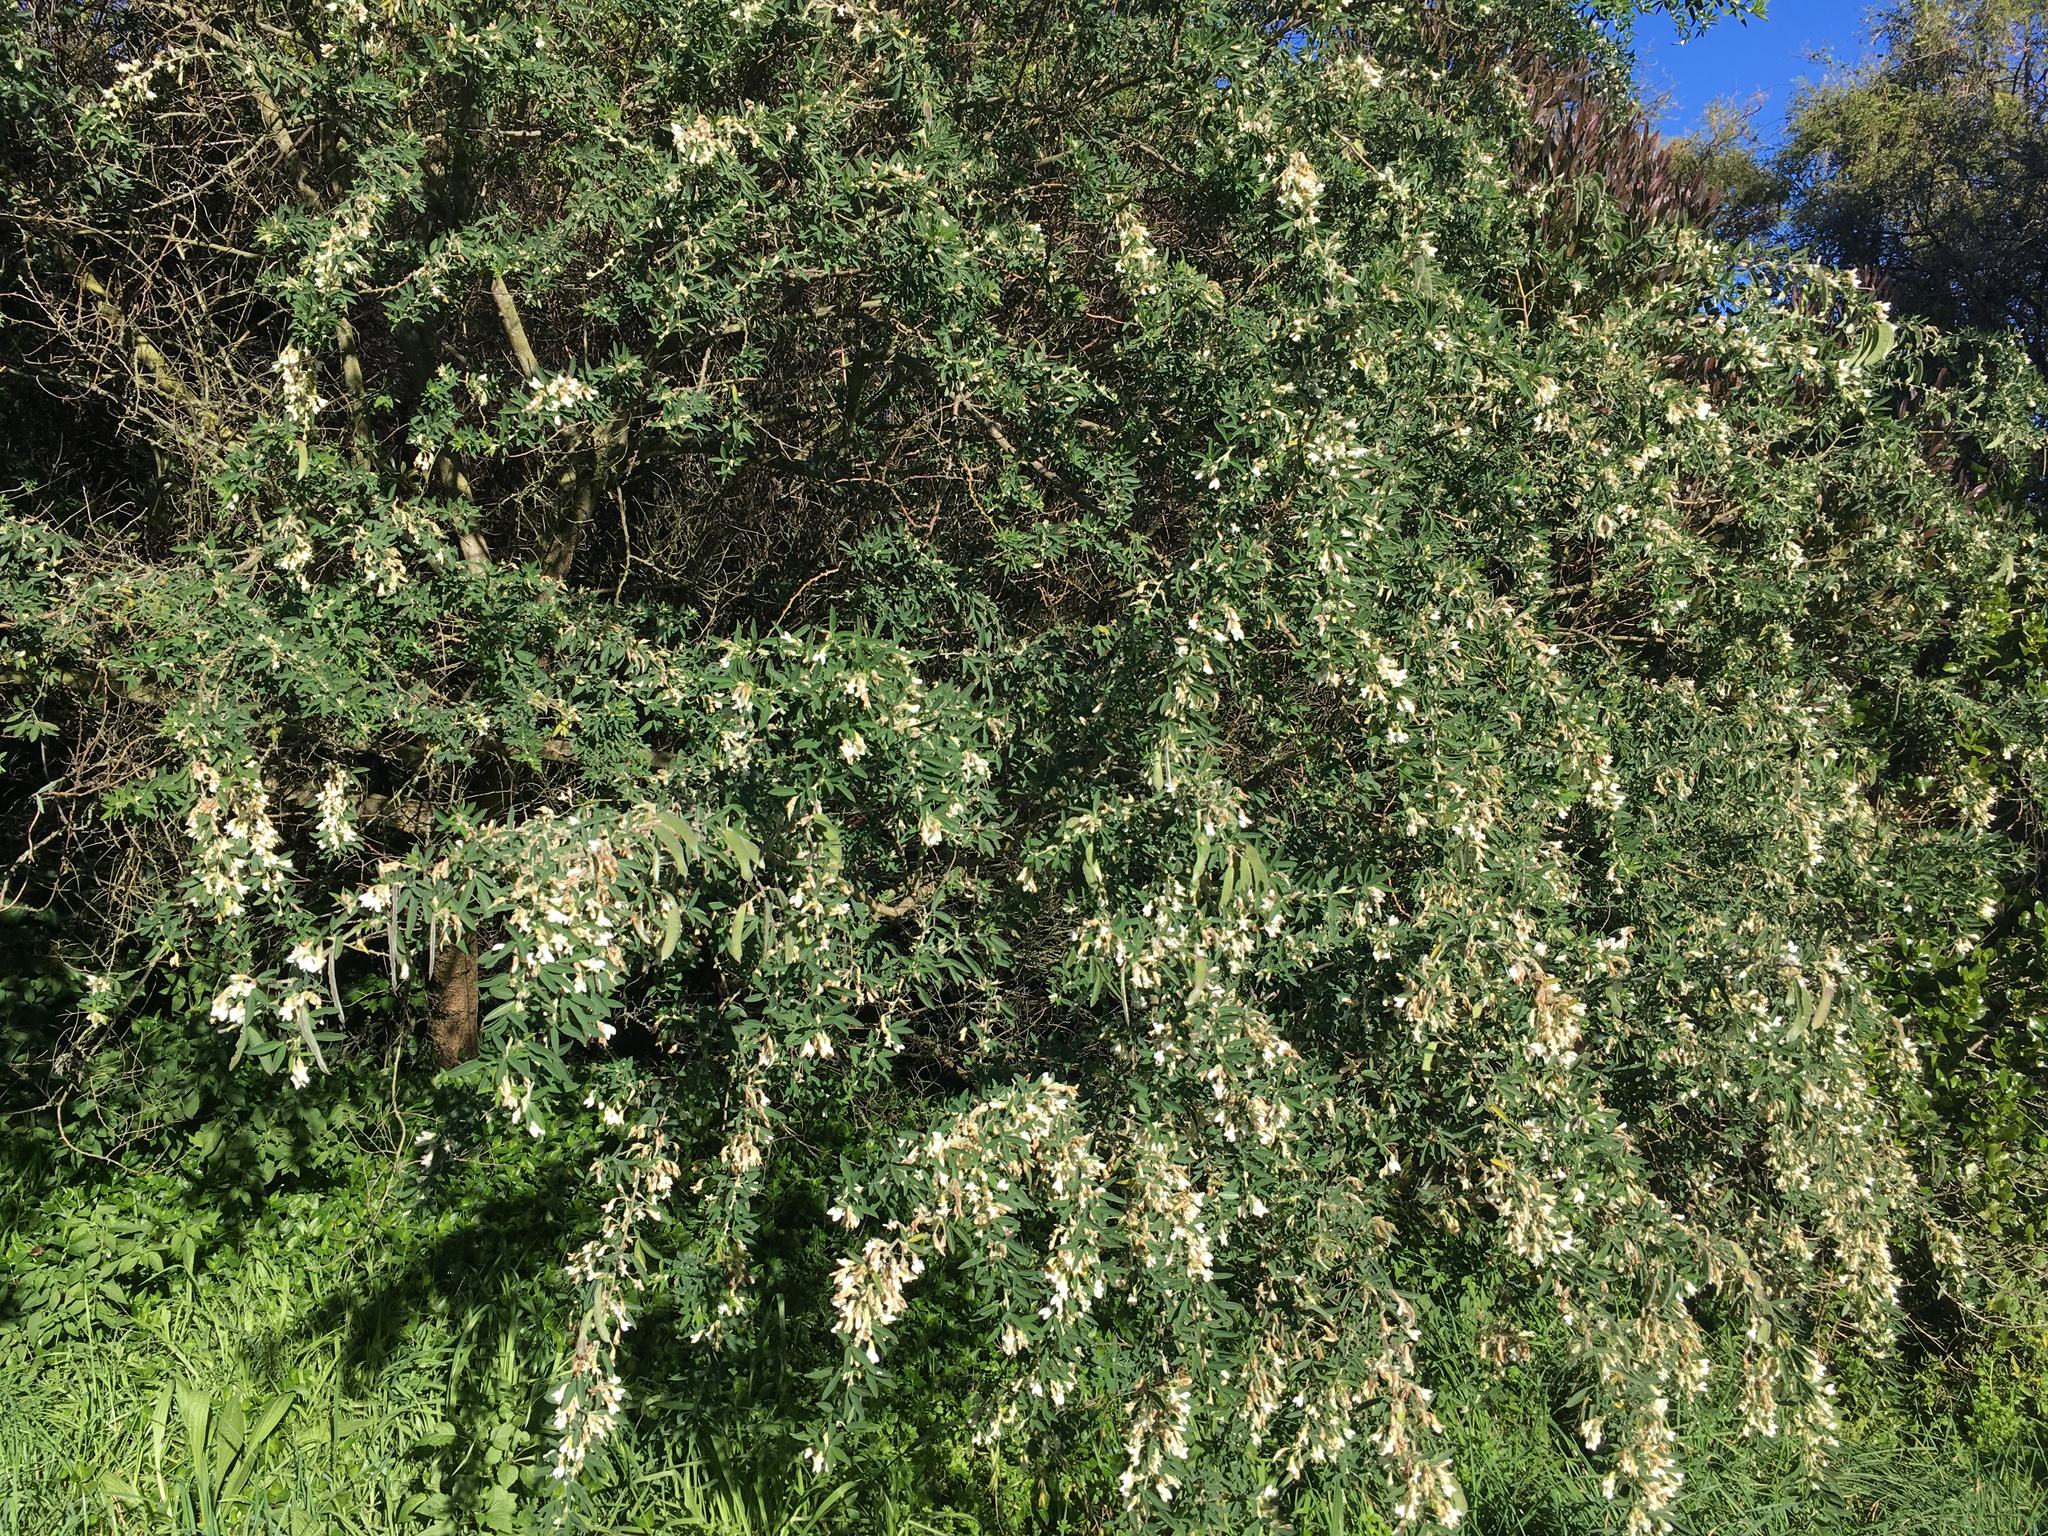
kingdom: Plantae
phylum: Tracheophyta
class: Magnoliopsida
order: Fabales
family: Fabaceae
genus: Chamaecytisus
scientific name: Chamaecytisus prolifer
